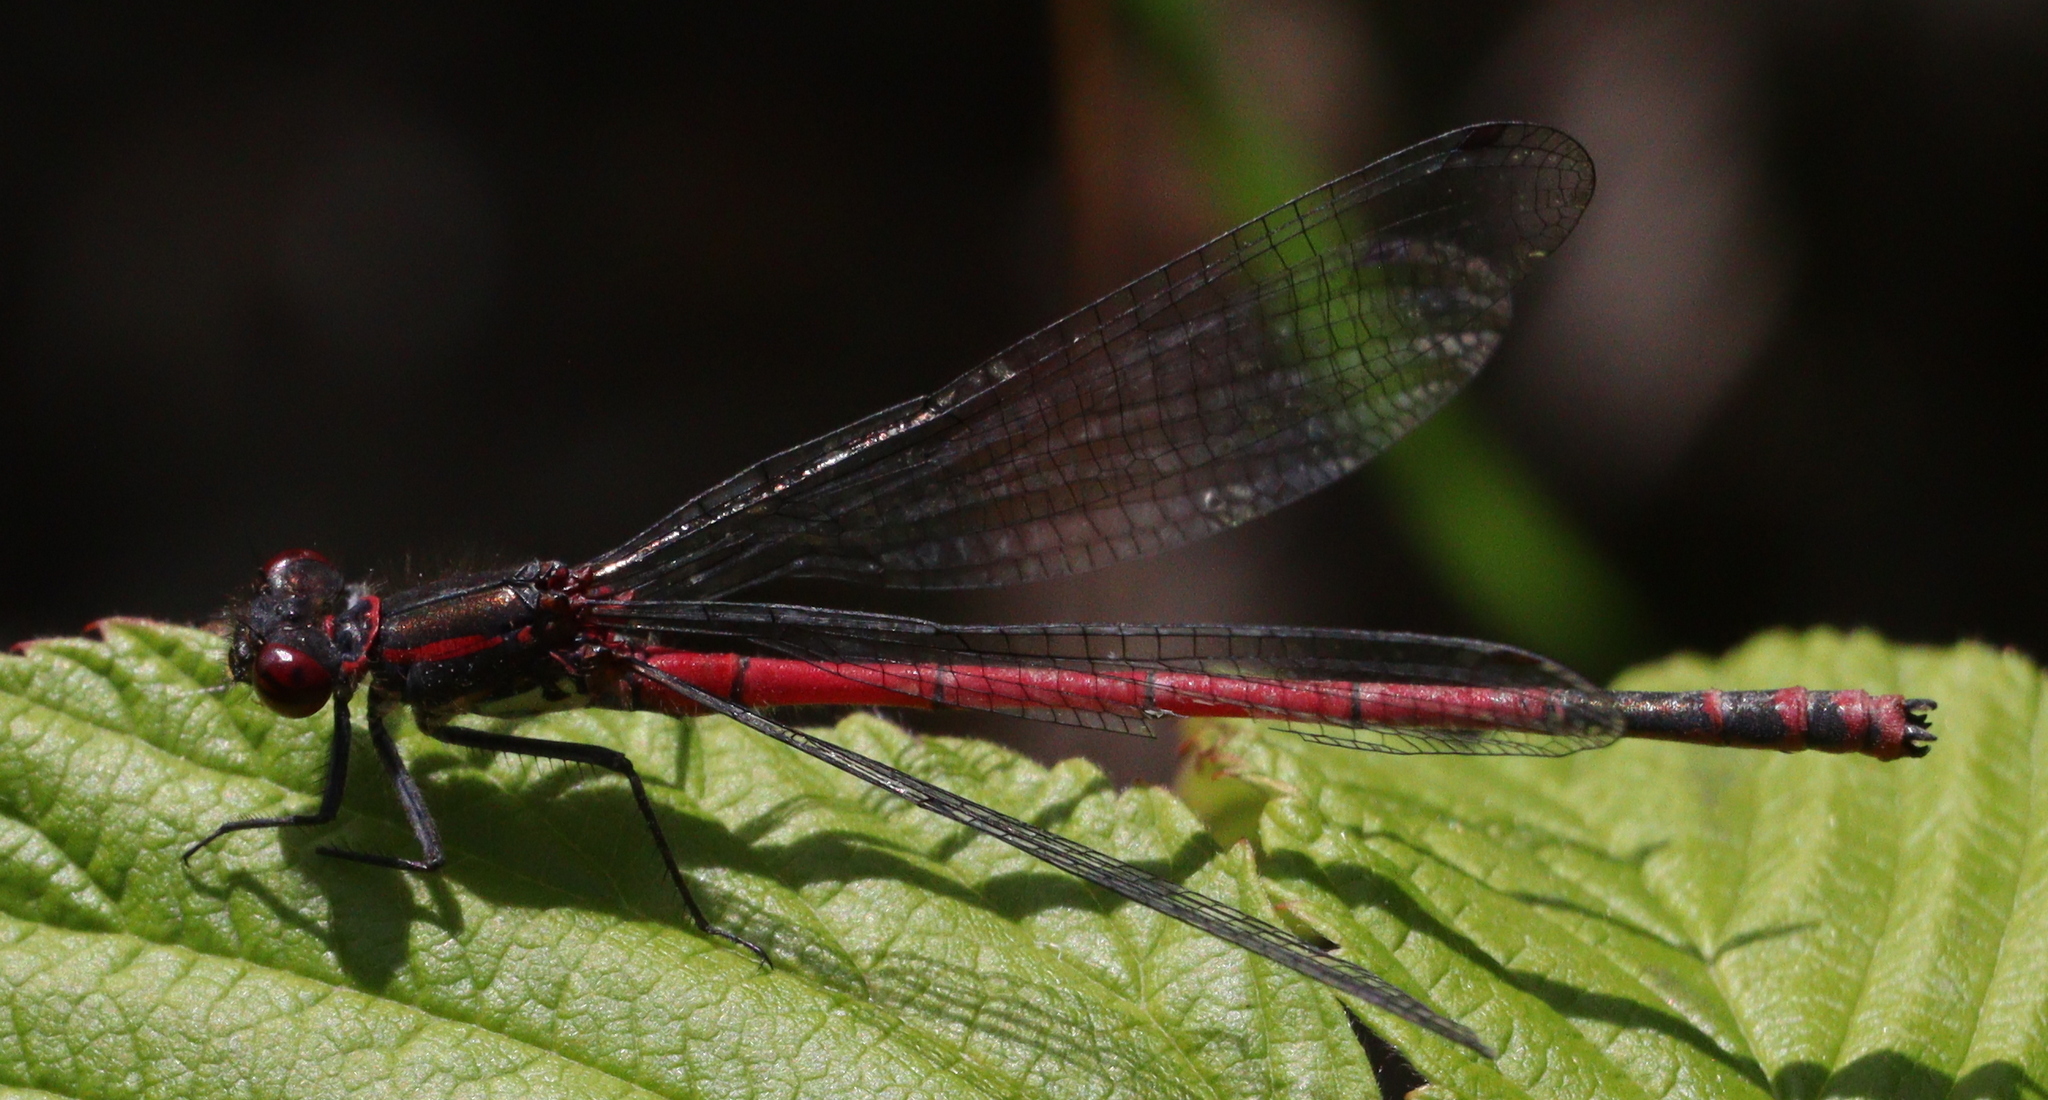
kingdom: Animalia
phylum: Arthropoda
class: Insecta
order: Odonata
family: Coenagrionidae
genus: Pyrrhosoma
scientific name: Pyrrhosoma nymphula
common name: Large red damsel
